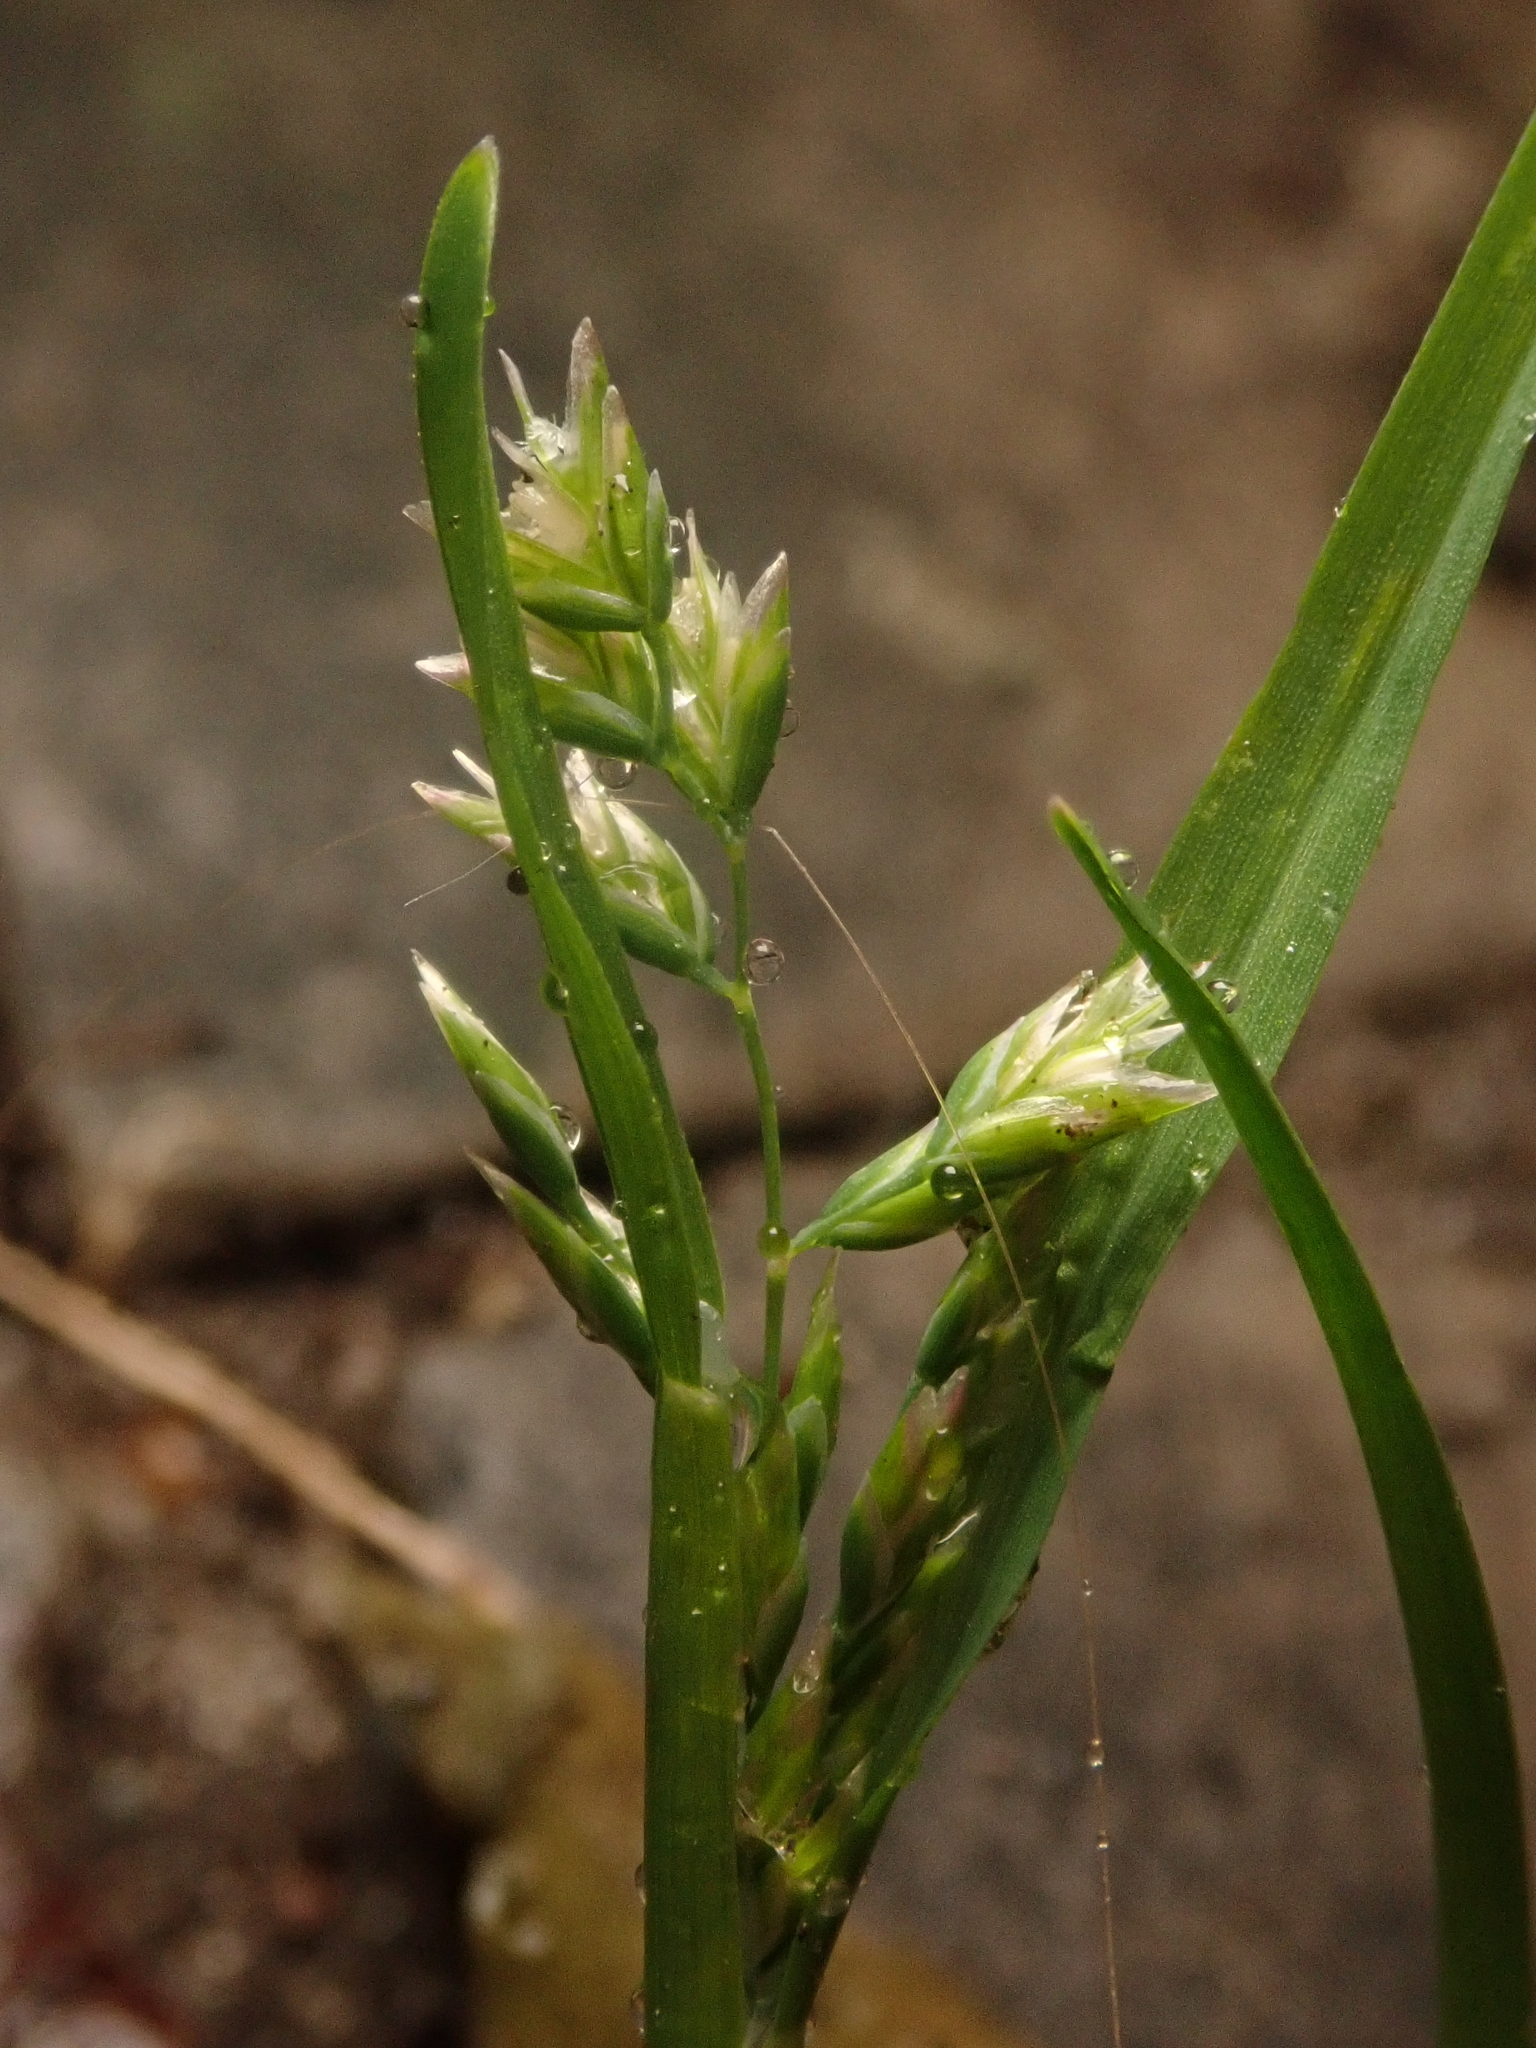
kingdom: Plantae
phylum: Tracheophyta
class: Liliopsida
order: Poales
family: Poaceae
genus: Poa
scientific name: Poa annua
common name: Annual bluegrass
